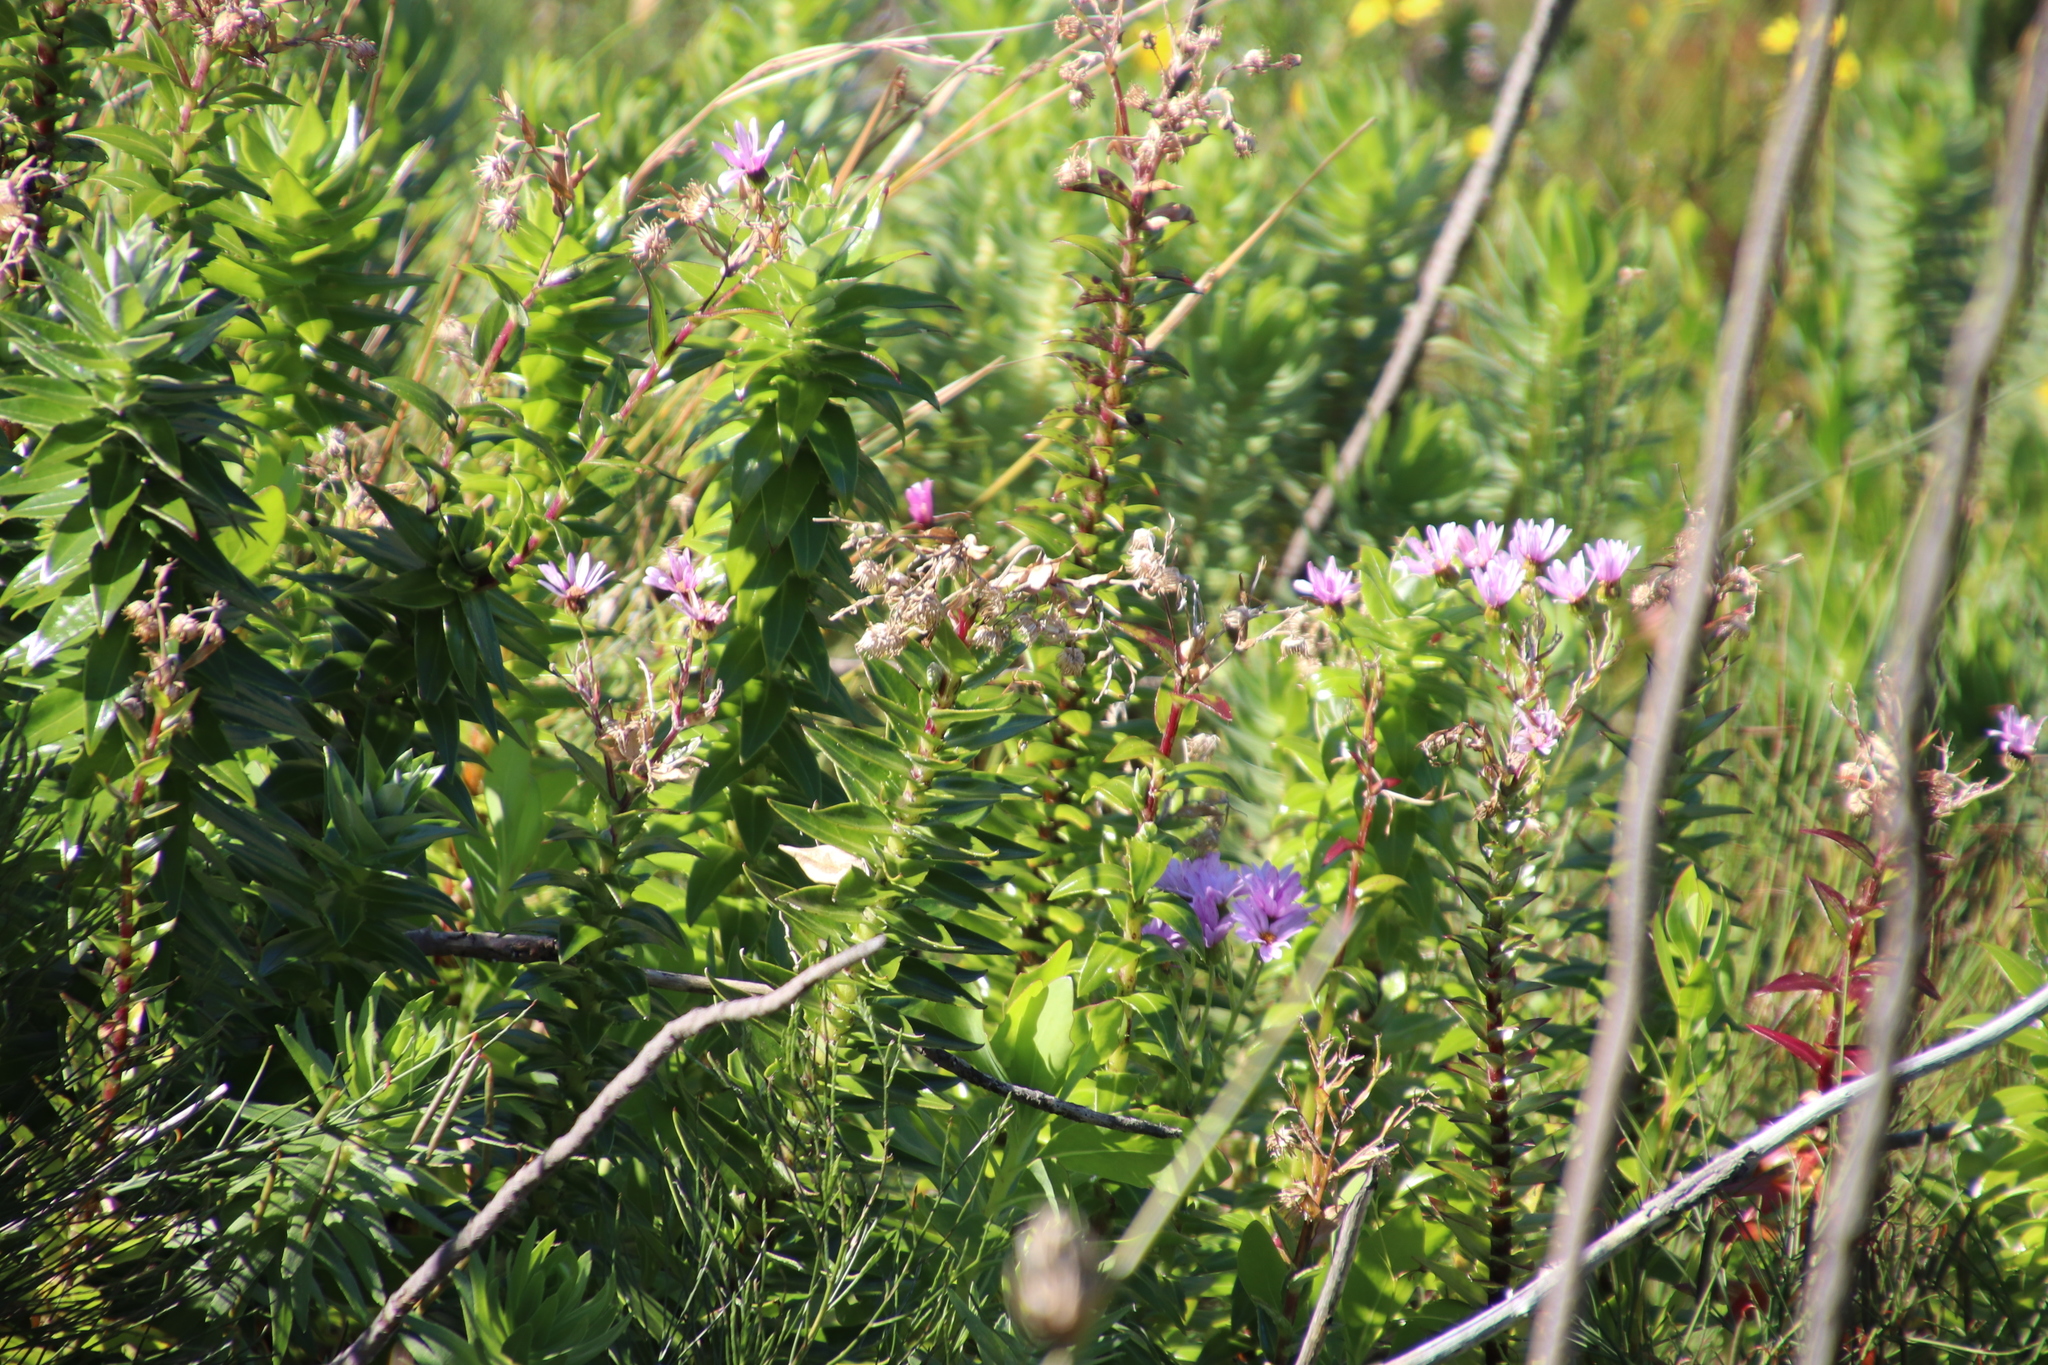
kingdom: Plantae
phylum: Tracheophyta
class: Magnoliopsida
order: Asterales
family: Asteraceae
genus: Senecio
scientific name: Senecio speciosissimus
